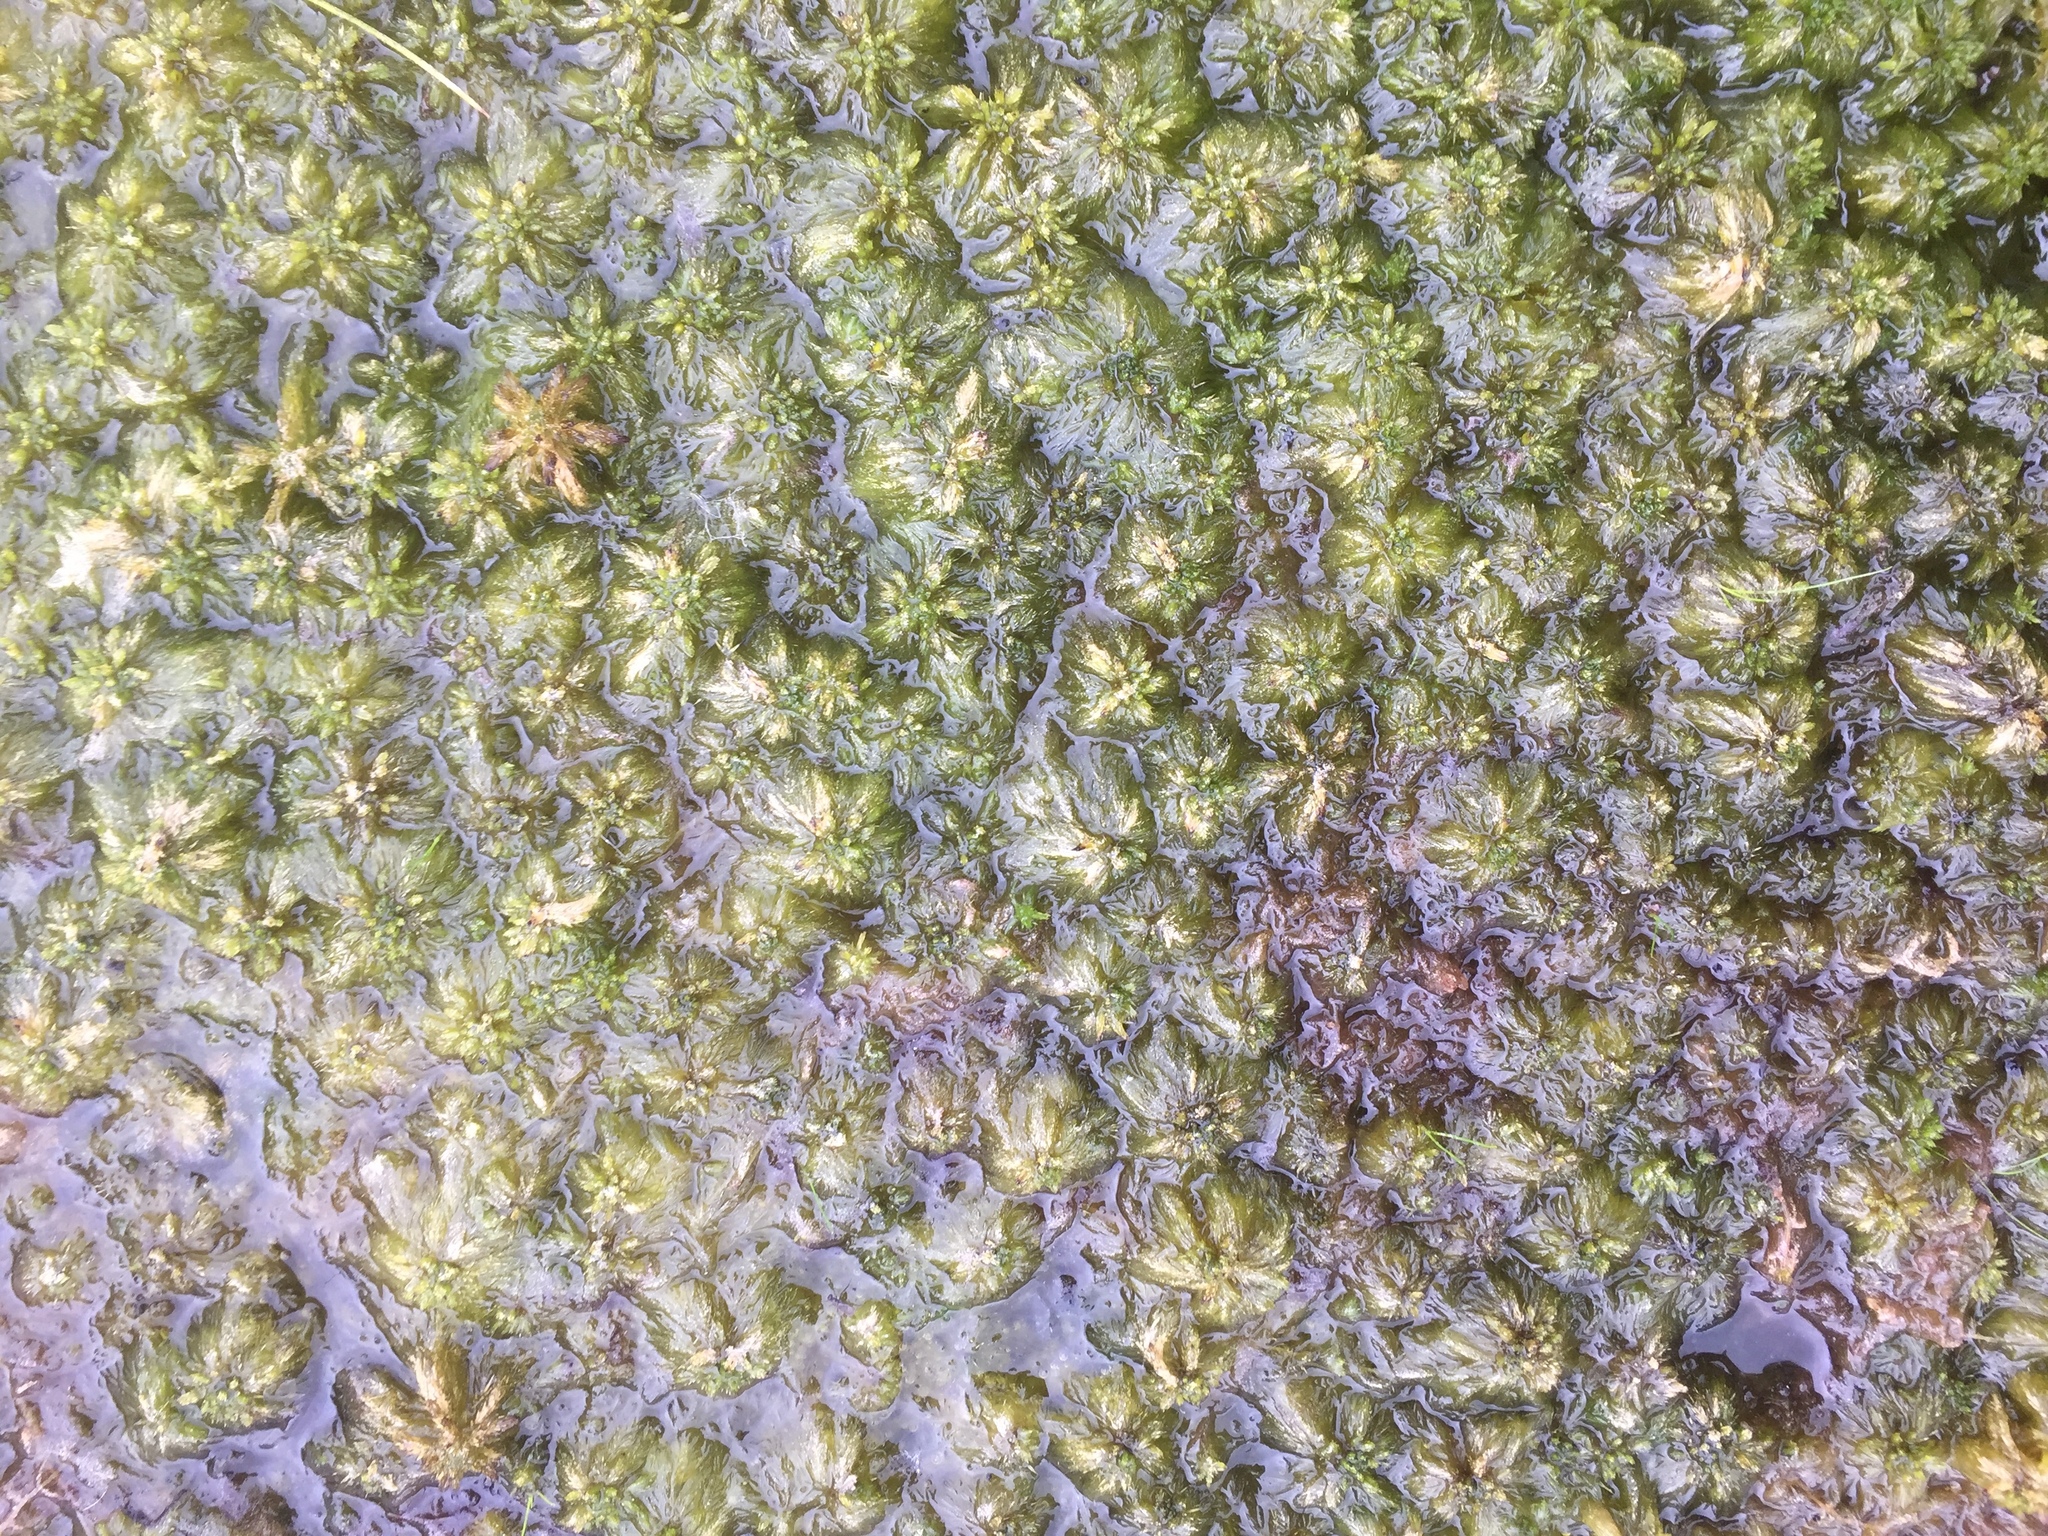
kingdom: Plantae
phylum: Bryophyta
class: Sphagnopsida
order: Sphagnales
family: Sphagnaceae
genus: Sphagnum
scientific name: Sphagnum cuspidatum
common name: Feathery peat moss
